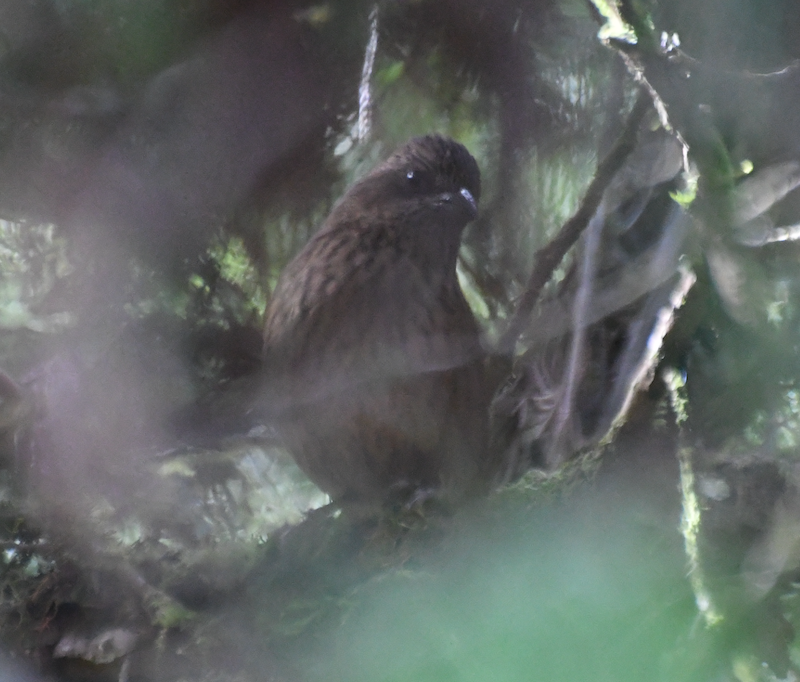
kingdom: Animalia
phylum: Chordata
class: Aves
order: Passeriformes
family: Fringillidae
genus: Carpodacus
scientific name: Carpodacus formosanus
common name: Taiwan rosefinch
